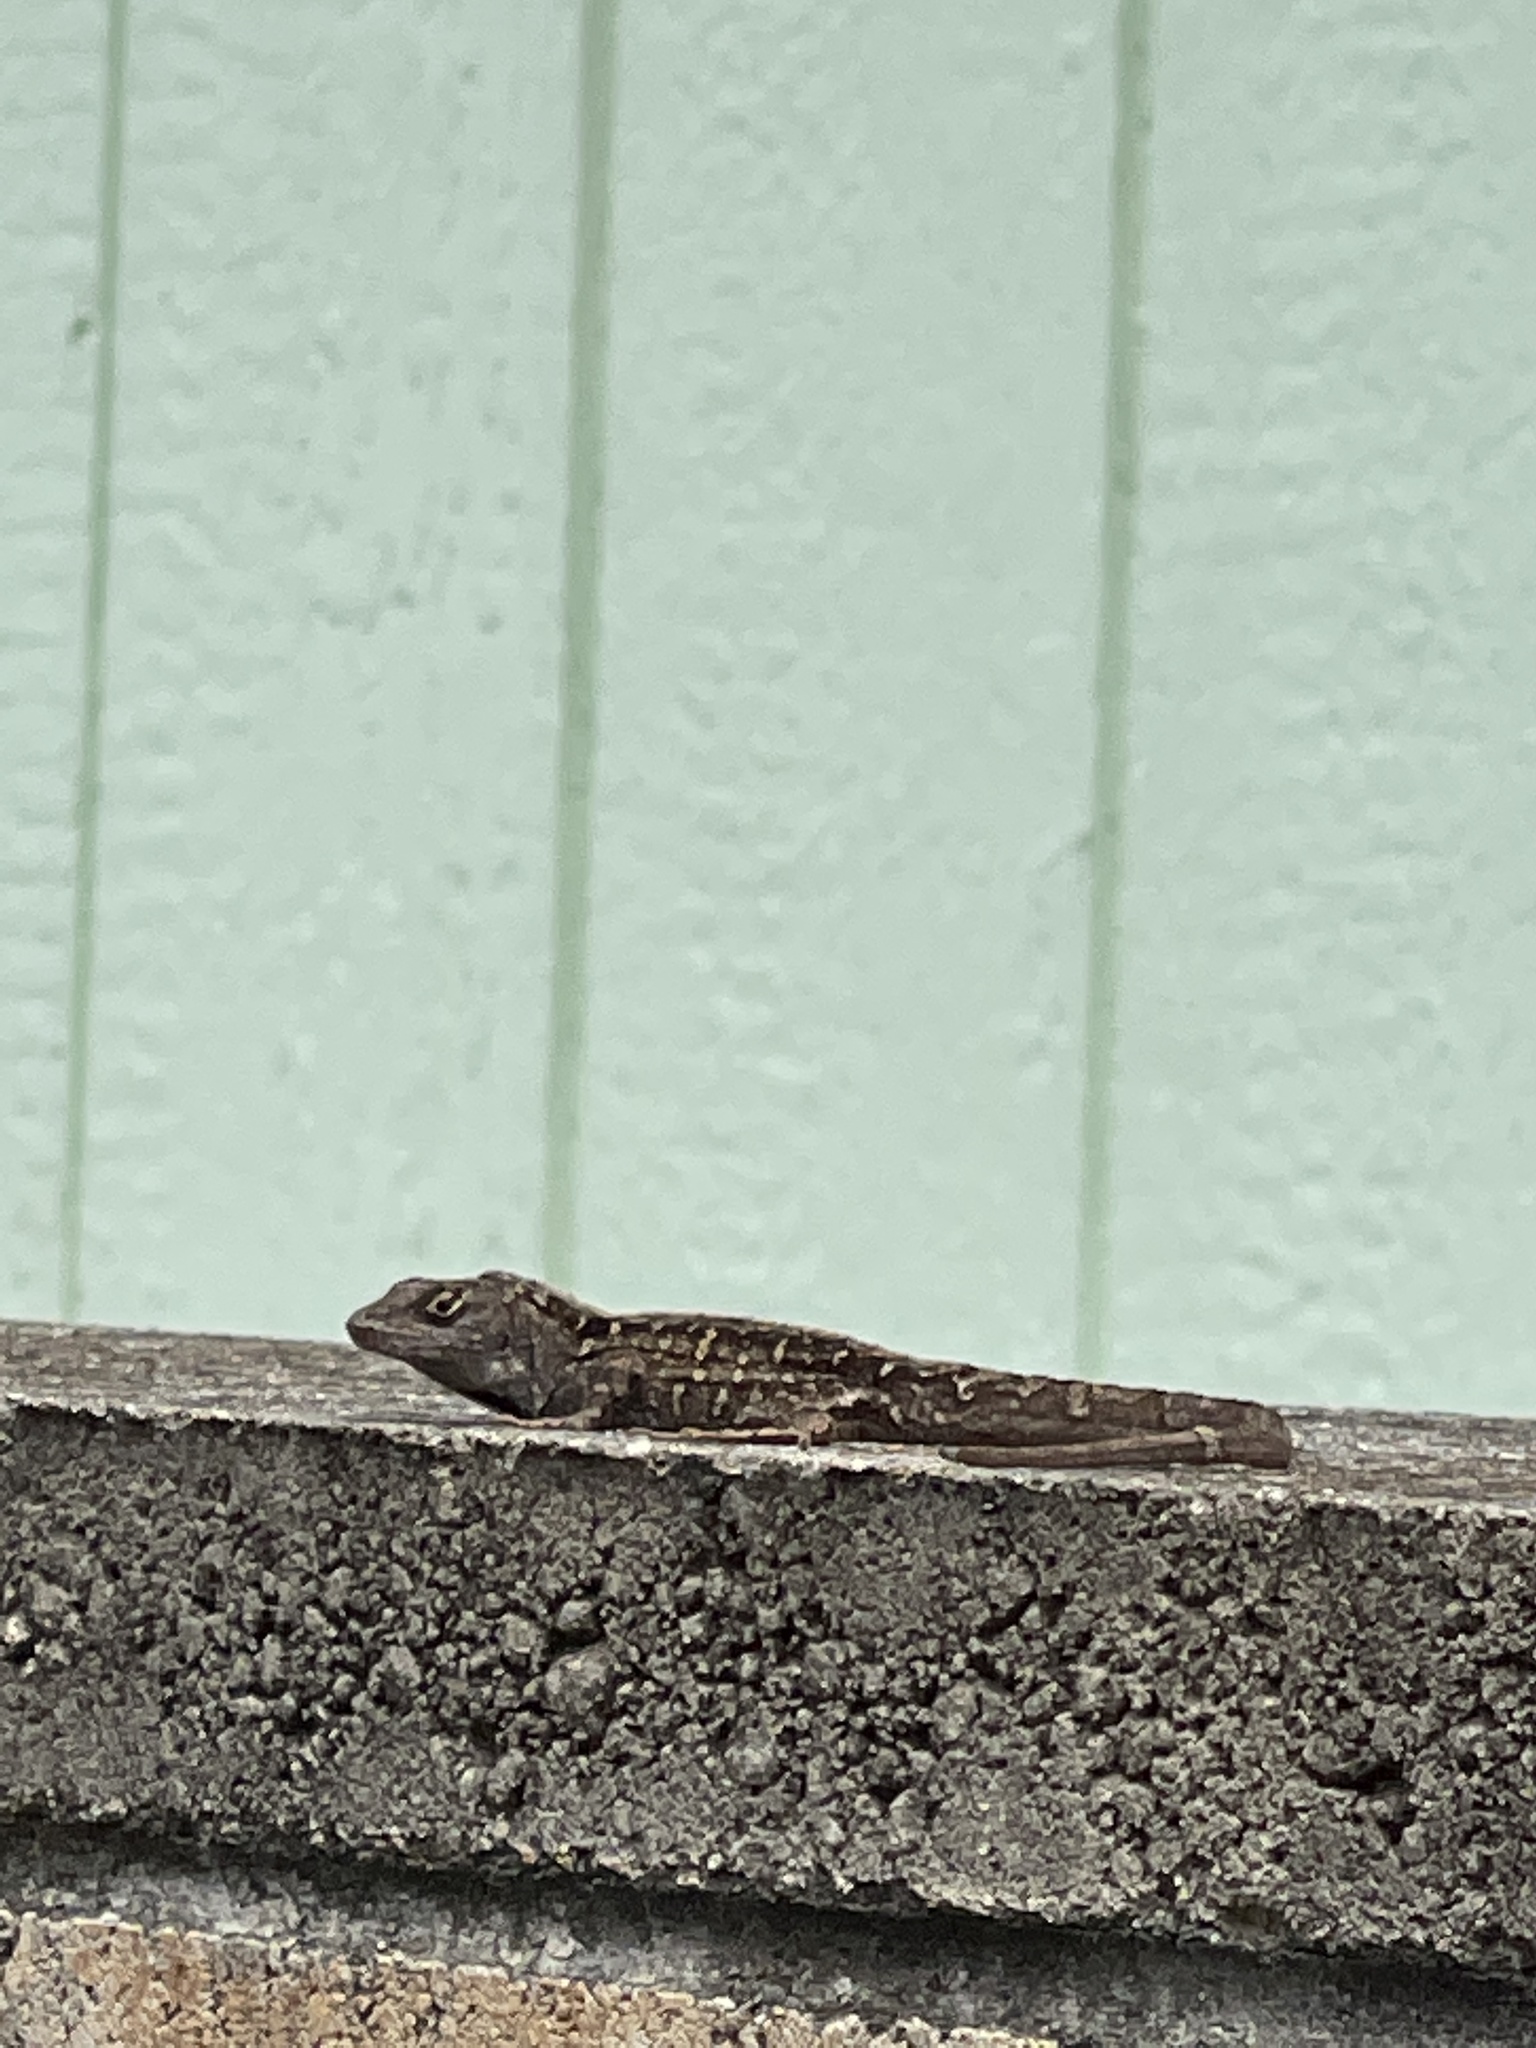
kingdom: Animalia
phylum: Chordata
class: Squamata
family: Dactyloidae
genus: Anolis
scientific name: Anolis sagrei
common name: Brown anole
